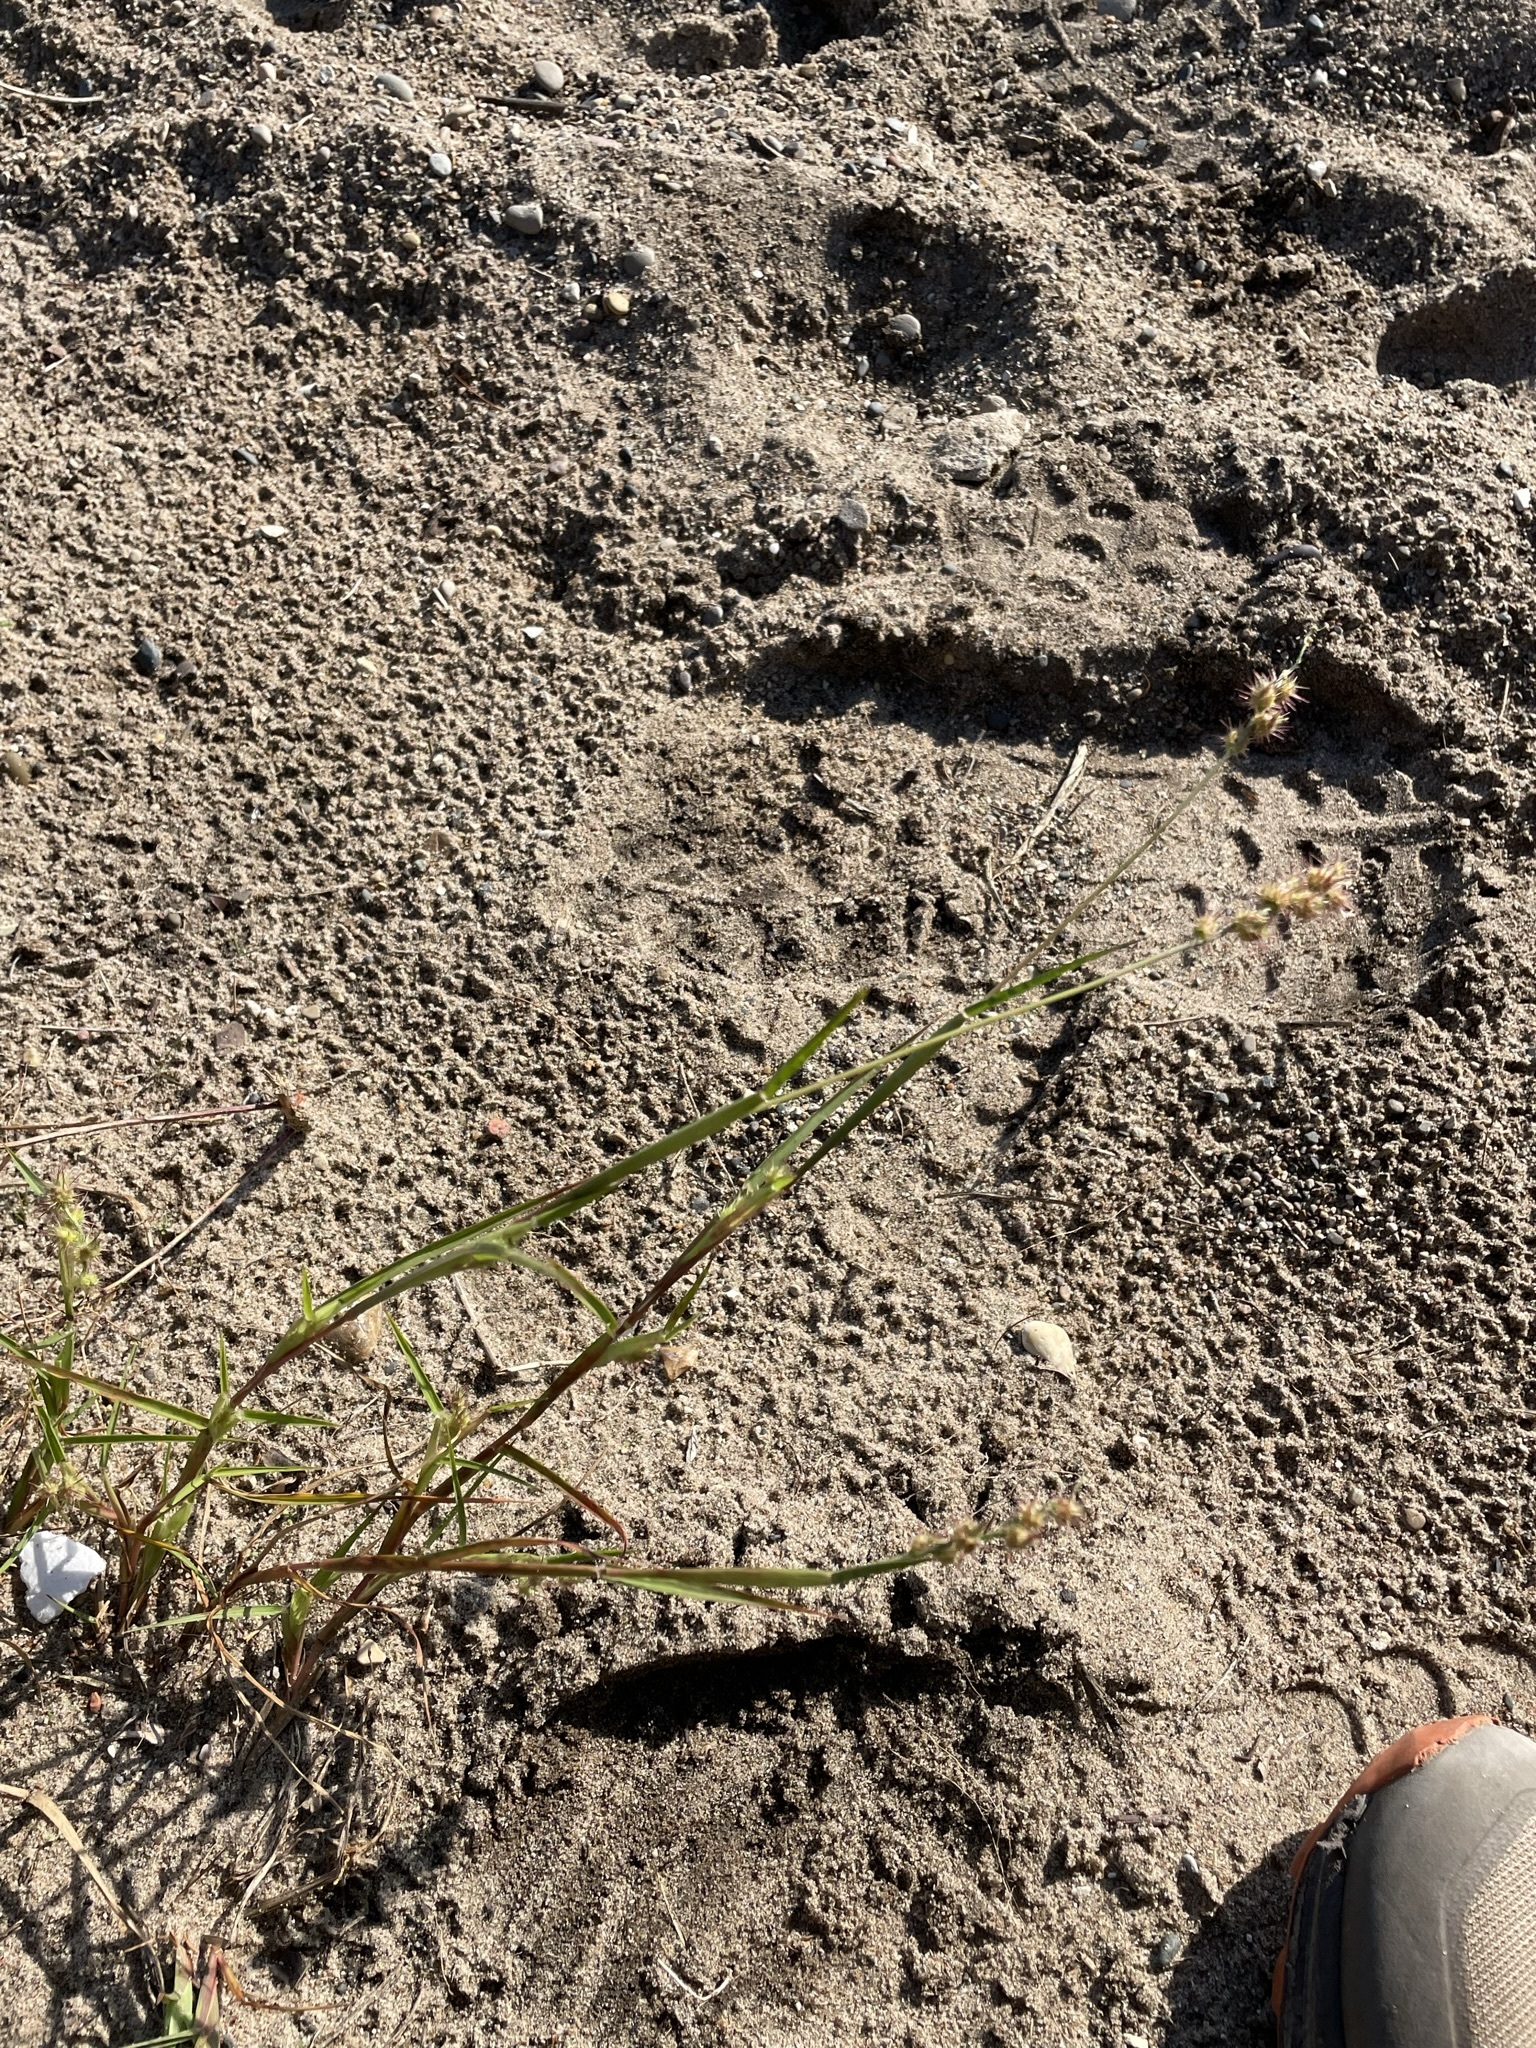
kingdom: Plantae
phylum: Tracheophyta
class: Liliopsida
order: Poales
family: Poaceae
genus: Cenchrus
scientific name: Cenchrus longispinus
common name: Mat sandbur
